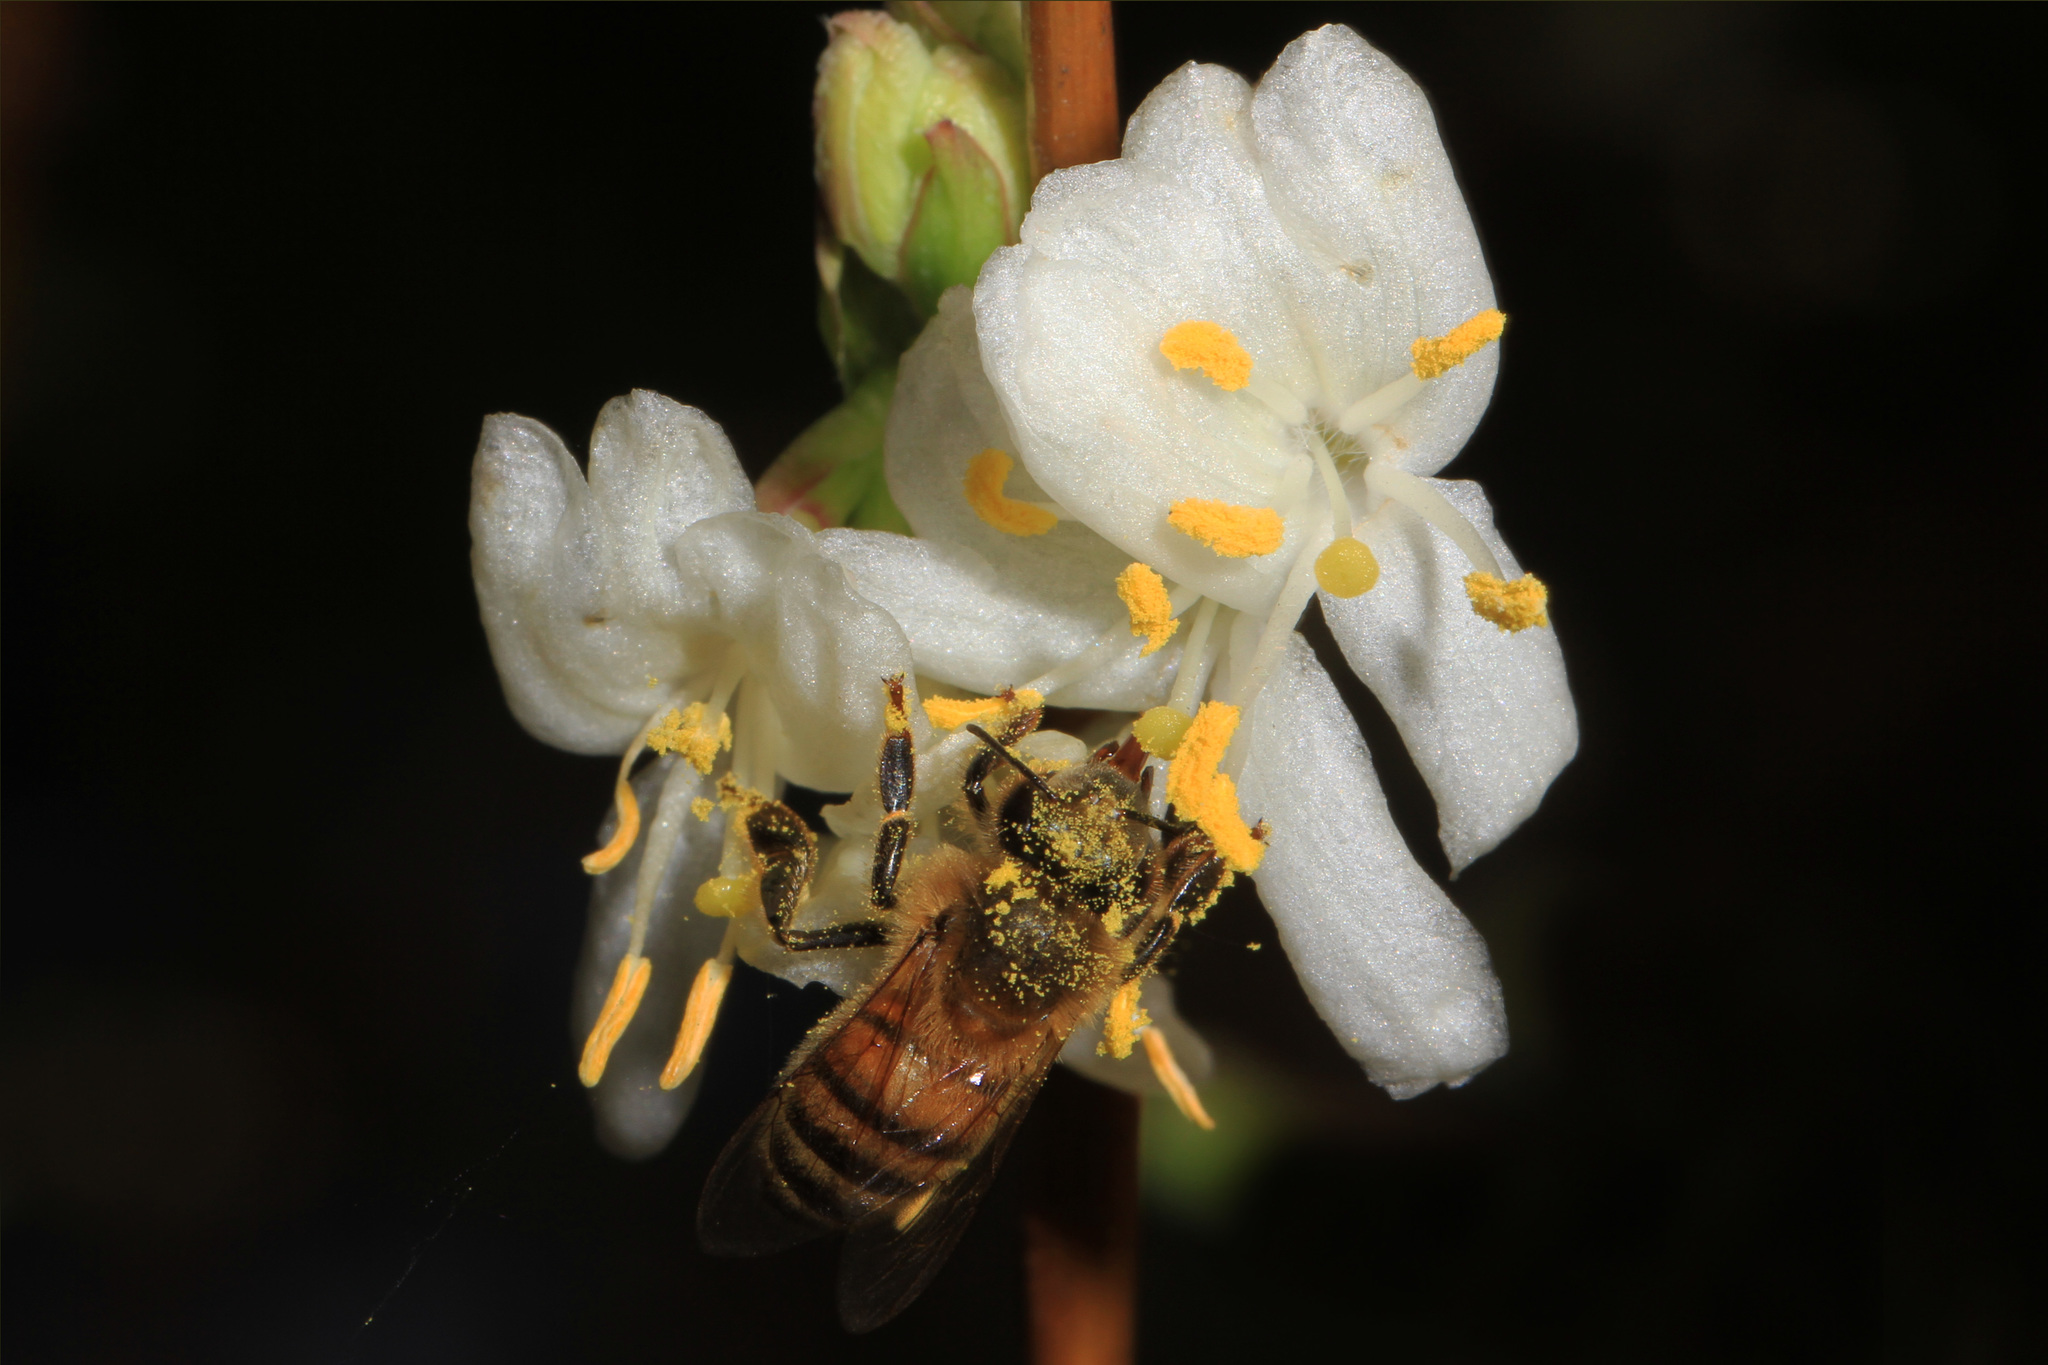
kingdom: Plantae
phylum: Tracheophyta
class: Magnoliopsida
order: Dipsacales
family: Caprifoliaceae
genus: Lonicera
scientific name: Lonicera fragrantissima
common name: Fragrant honeysuckle
